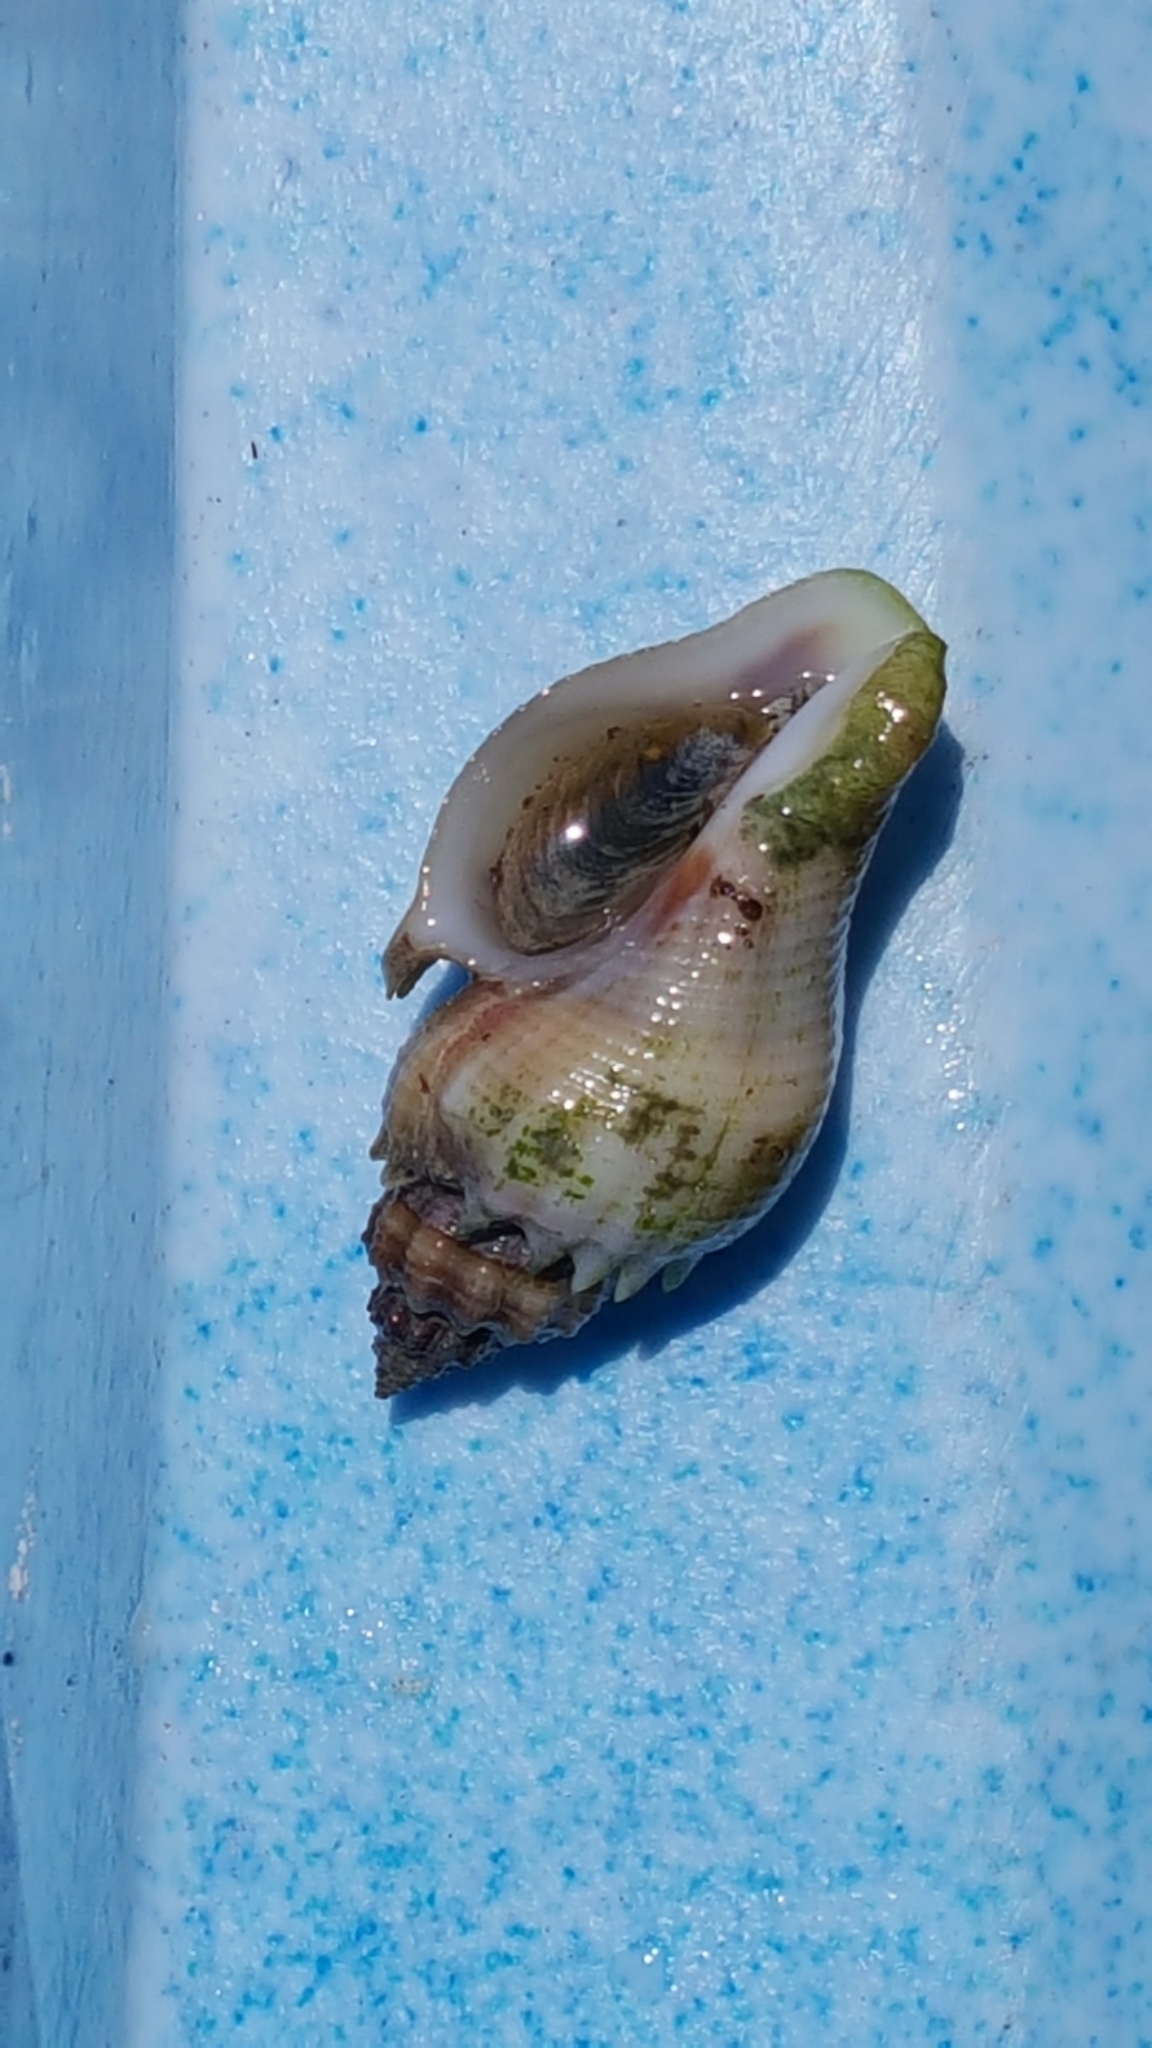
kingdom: Animalia
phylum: Mollusca
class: Gastropoda
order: Neogastropoda
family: Melongenidae
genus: Melongena
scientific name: Melongena corona
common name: American crown conch
